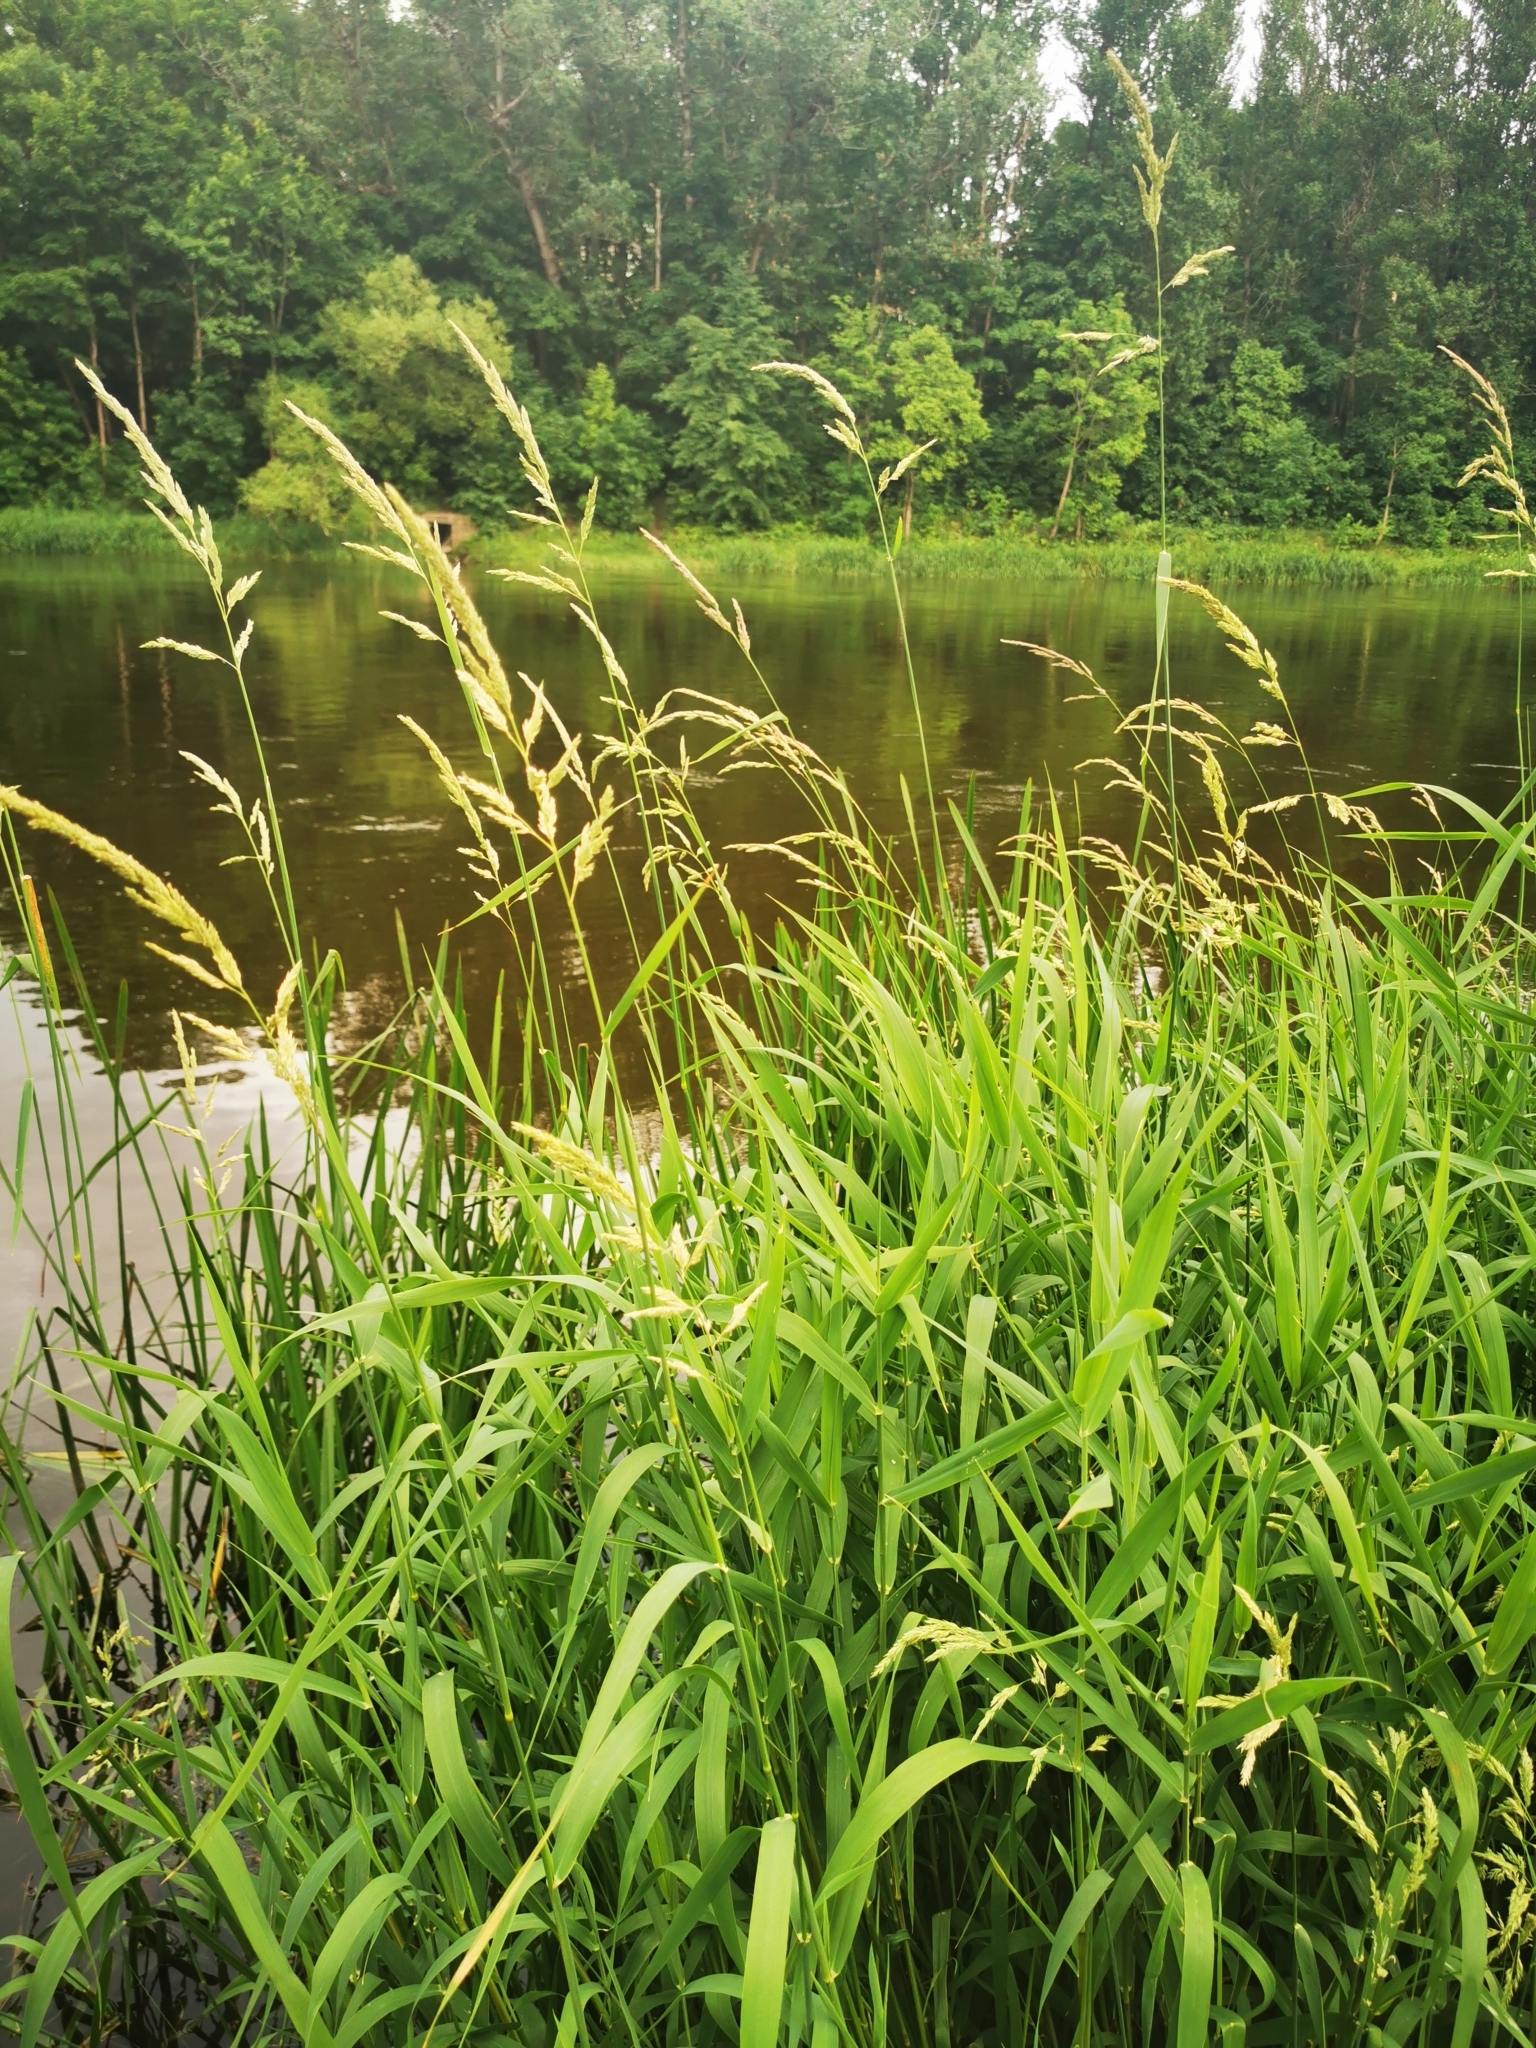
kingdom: Plantae
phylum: Tracheophyta
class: Liliopsida
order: Poales
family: Poaceae
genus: Phalaris
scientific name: Phalaris arundinacea
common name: Reed canary-grass
